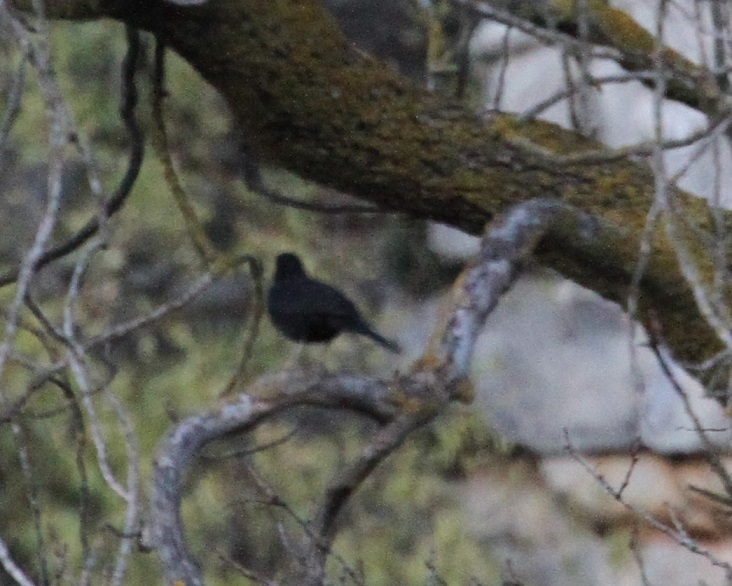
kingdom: Animalia
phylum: Chordata
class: Aves
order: Passeriformes
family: Turdidae
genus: Turdus
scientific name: Turdus merula
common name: Common blackbird
